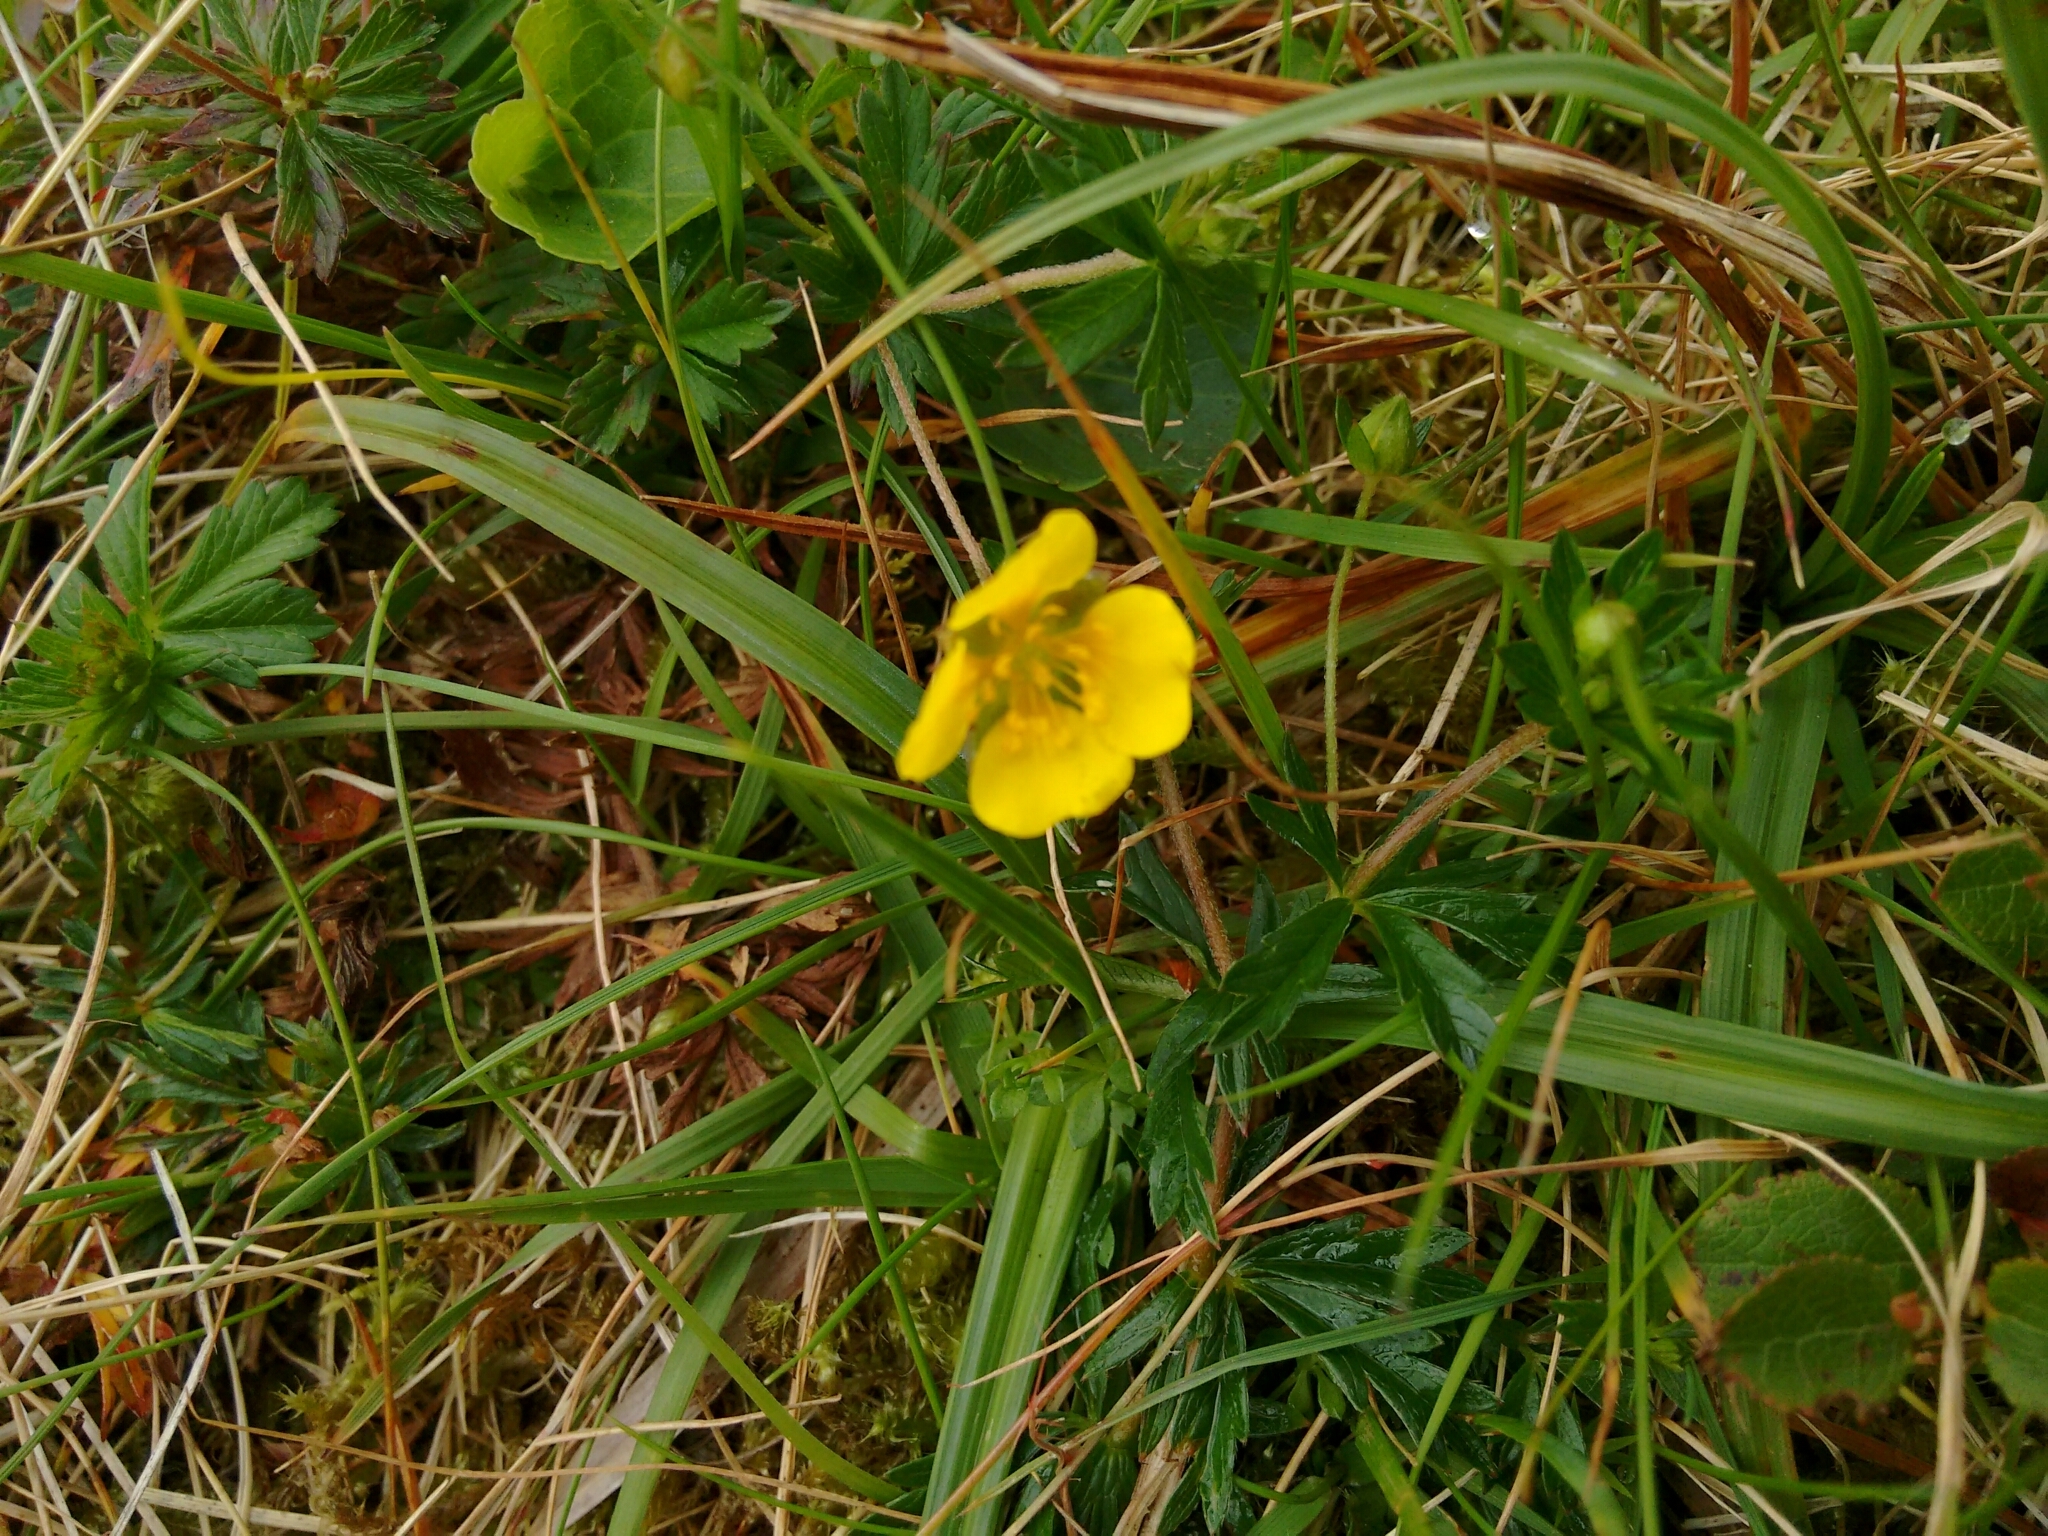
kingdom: Plantae
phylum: Tracheophyta
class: Magnoliopsida
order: Rosales
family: Rosaceae
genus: Potentilla
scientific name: Potentilla erecta
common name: Tormentil
